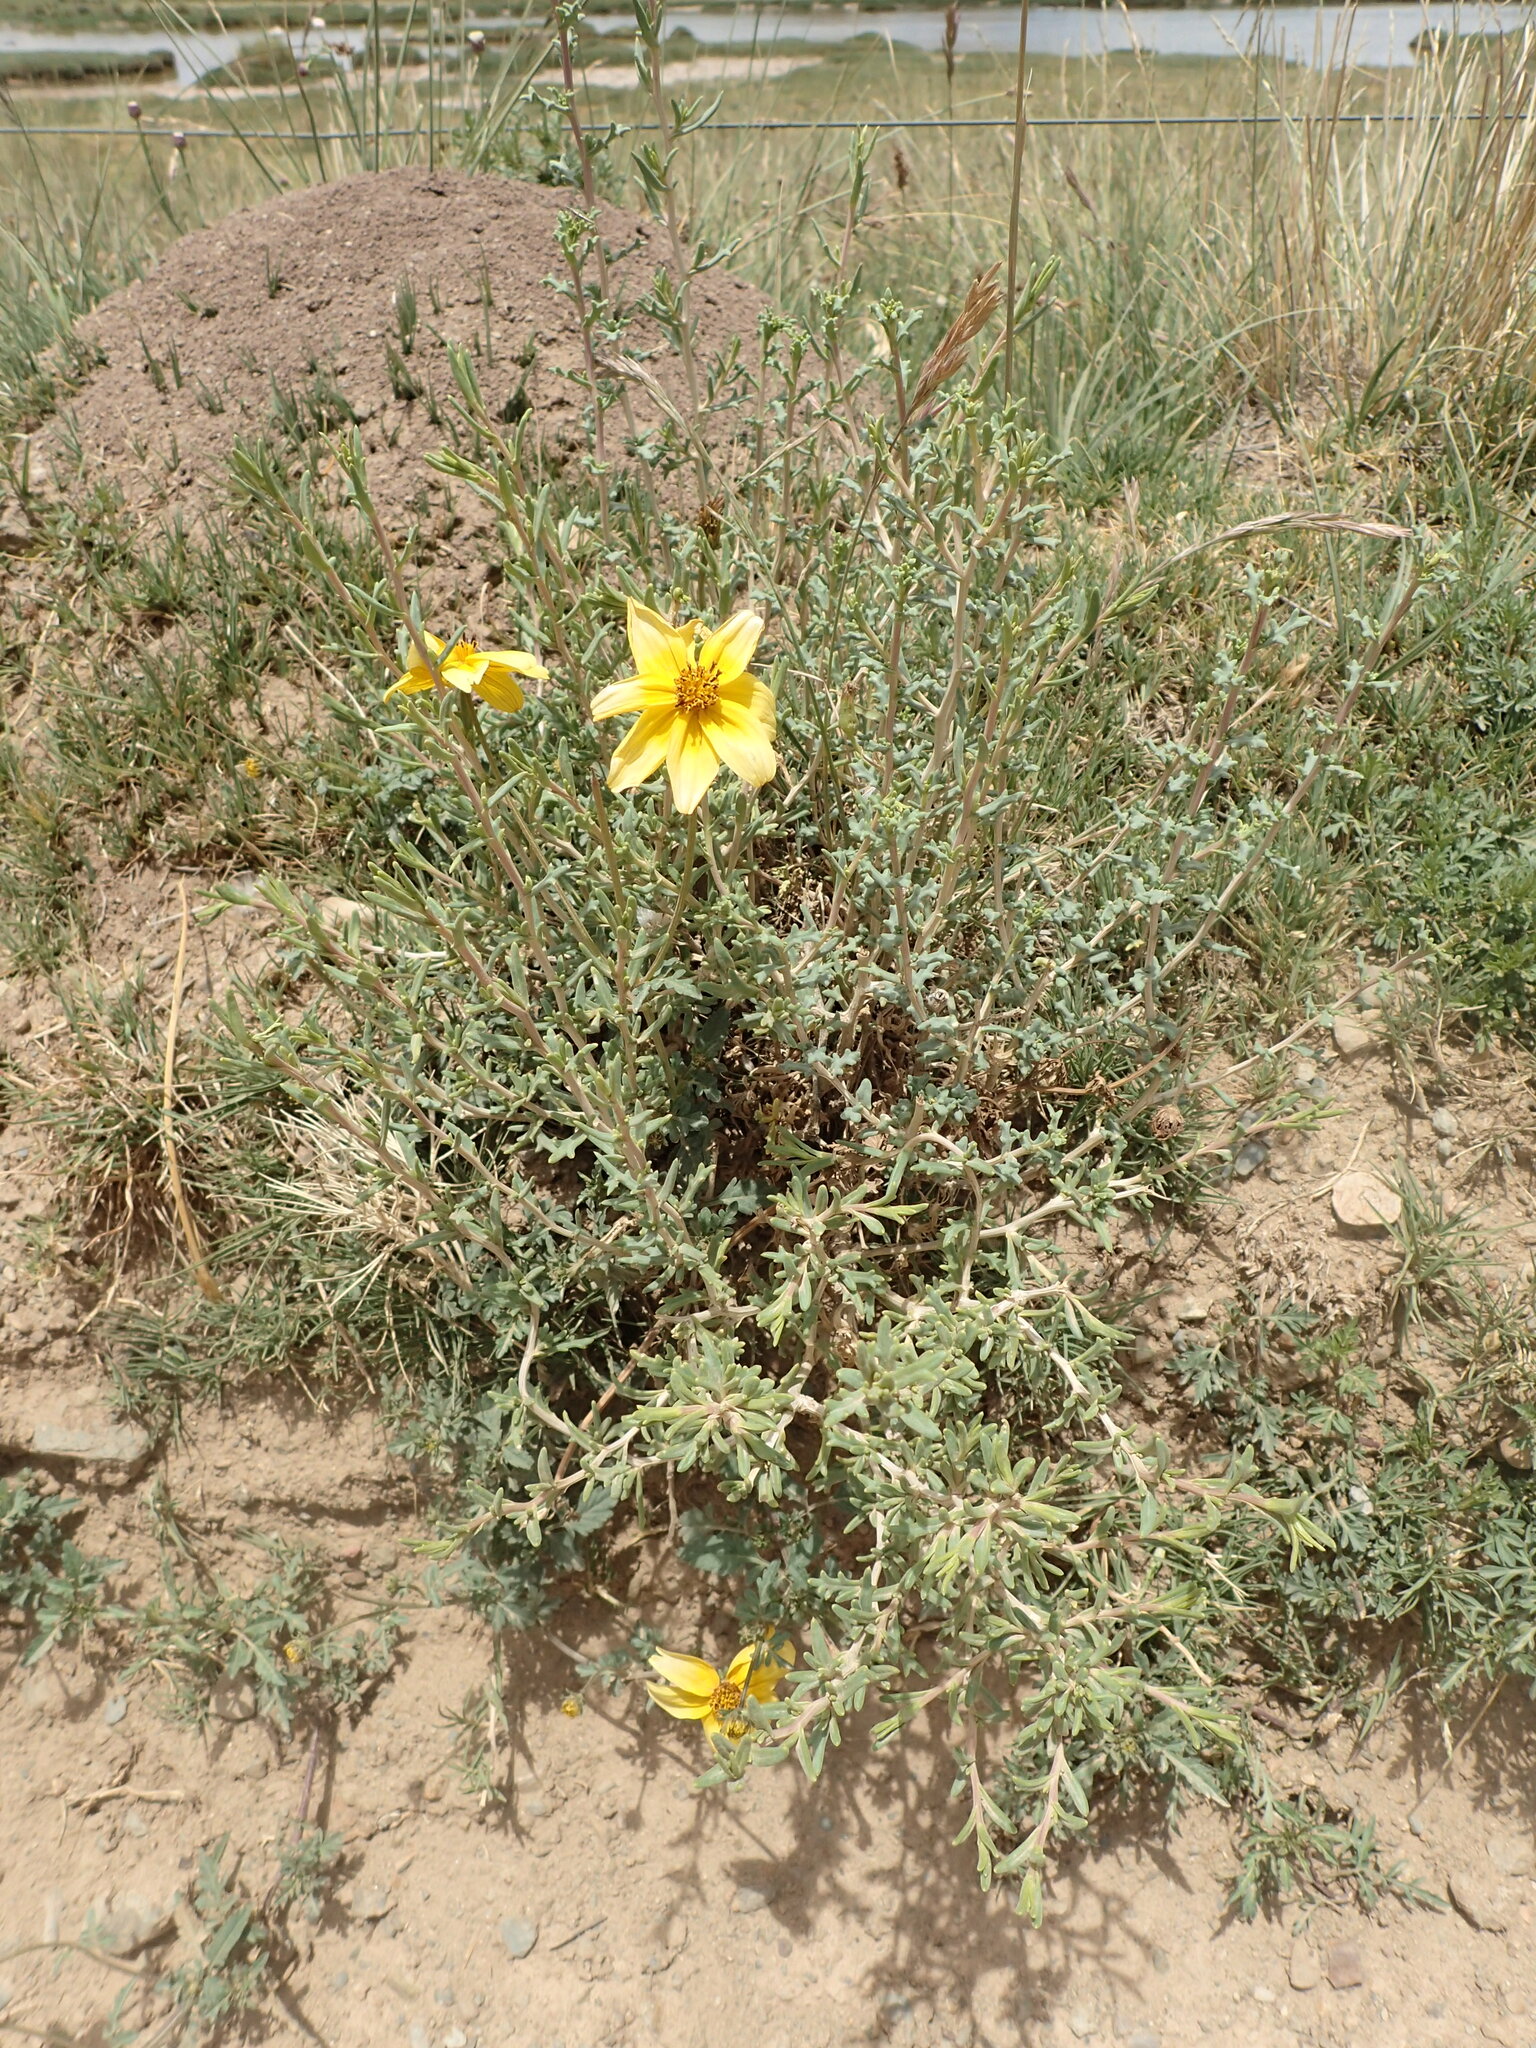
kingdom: Plantae
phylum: Tracheophyta
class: Magnoliopsida
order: Asterales
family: Asteraceae
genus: Bidens
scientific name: Bidens andicola
